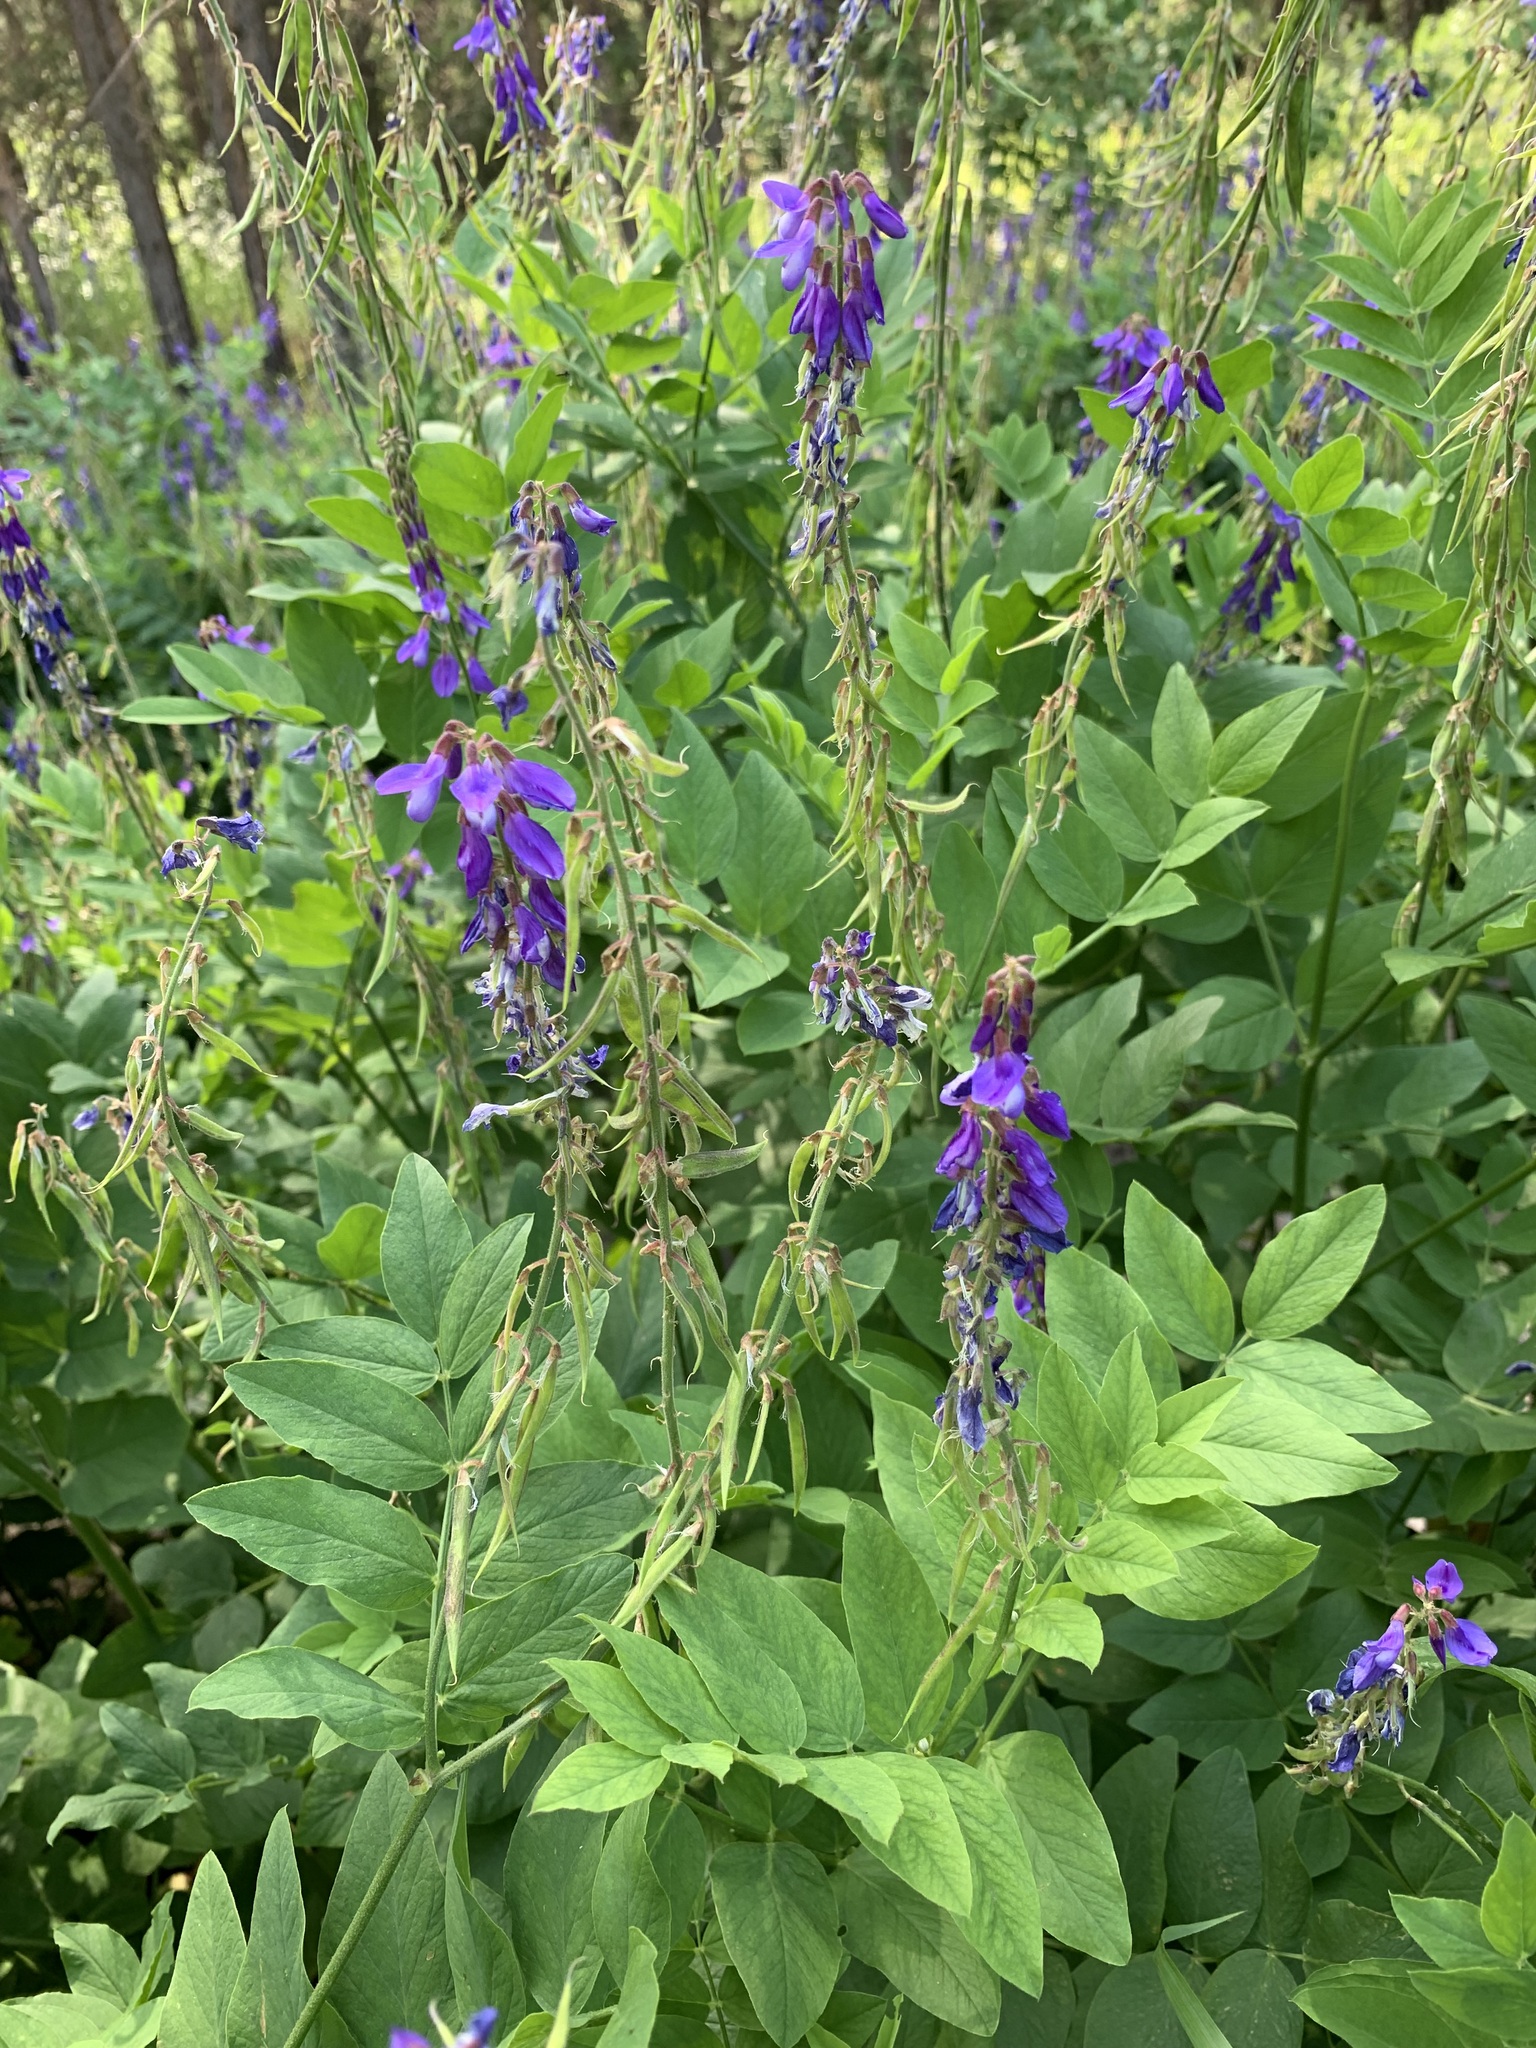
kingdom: Plantae
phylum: Tracheophyta
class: Magnoliopsida
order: Fabales
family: Fabaceae
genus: Galega
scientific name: Galega orientalis
